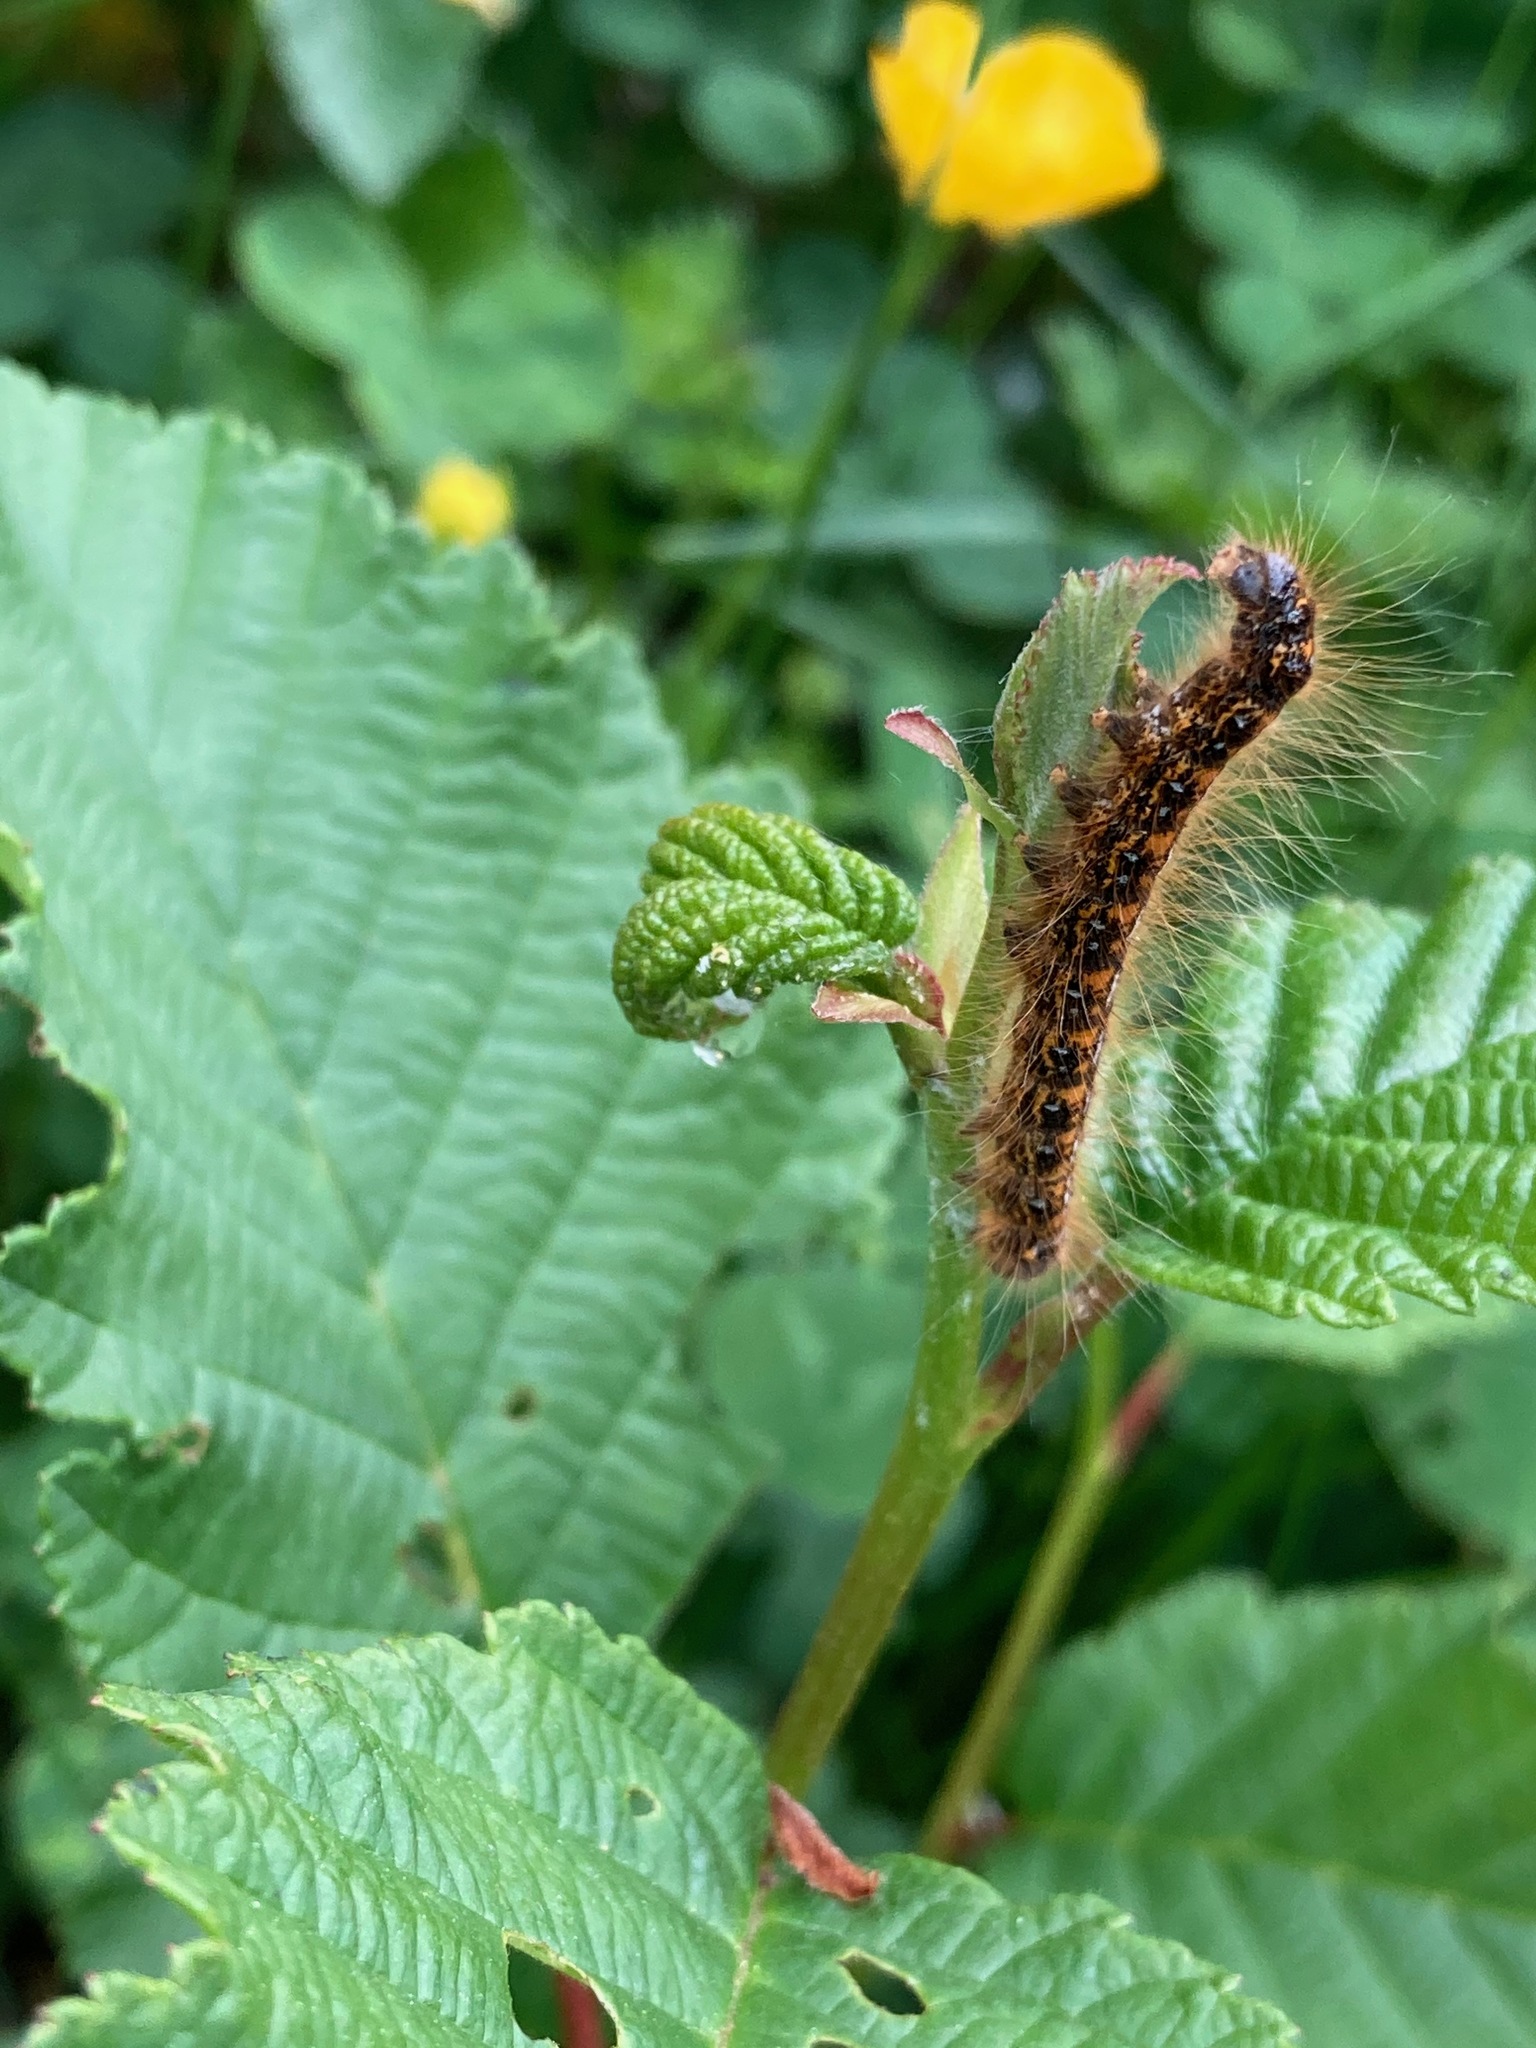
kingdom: Animalia
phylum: Arthropoda
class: Insecta
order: Lepidoptera
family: Lasiocampidae
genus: Malacosoma
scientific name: Malacosoma californica
